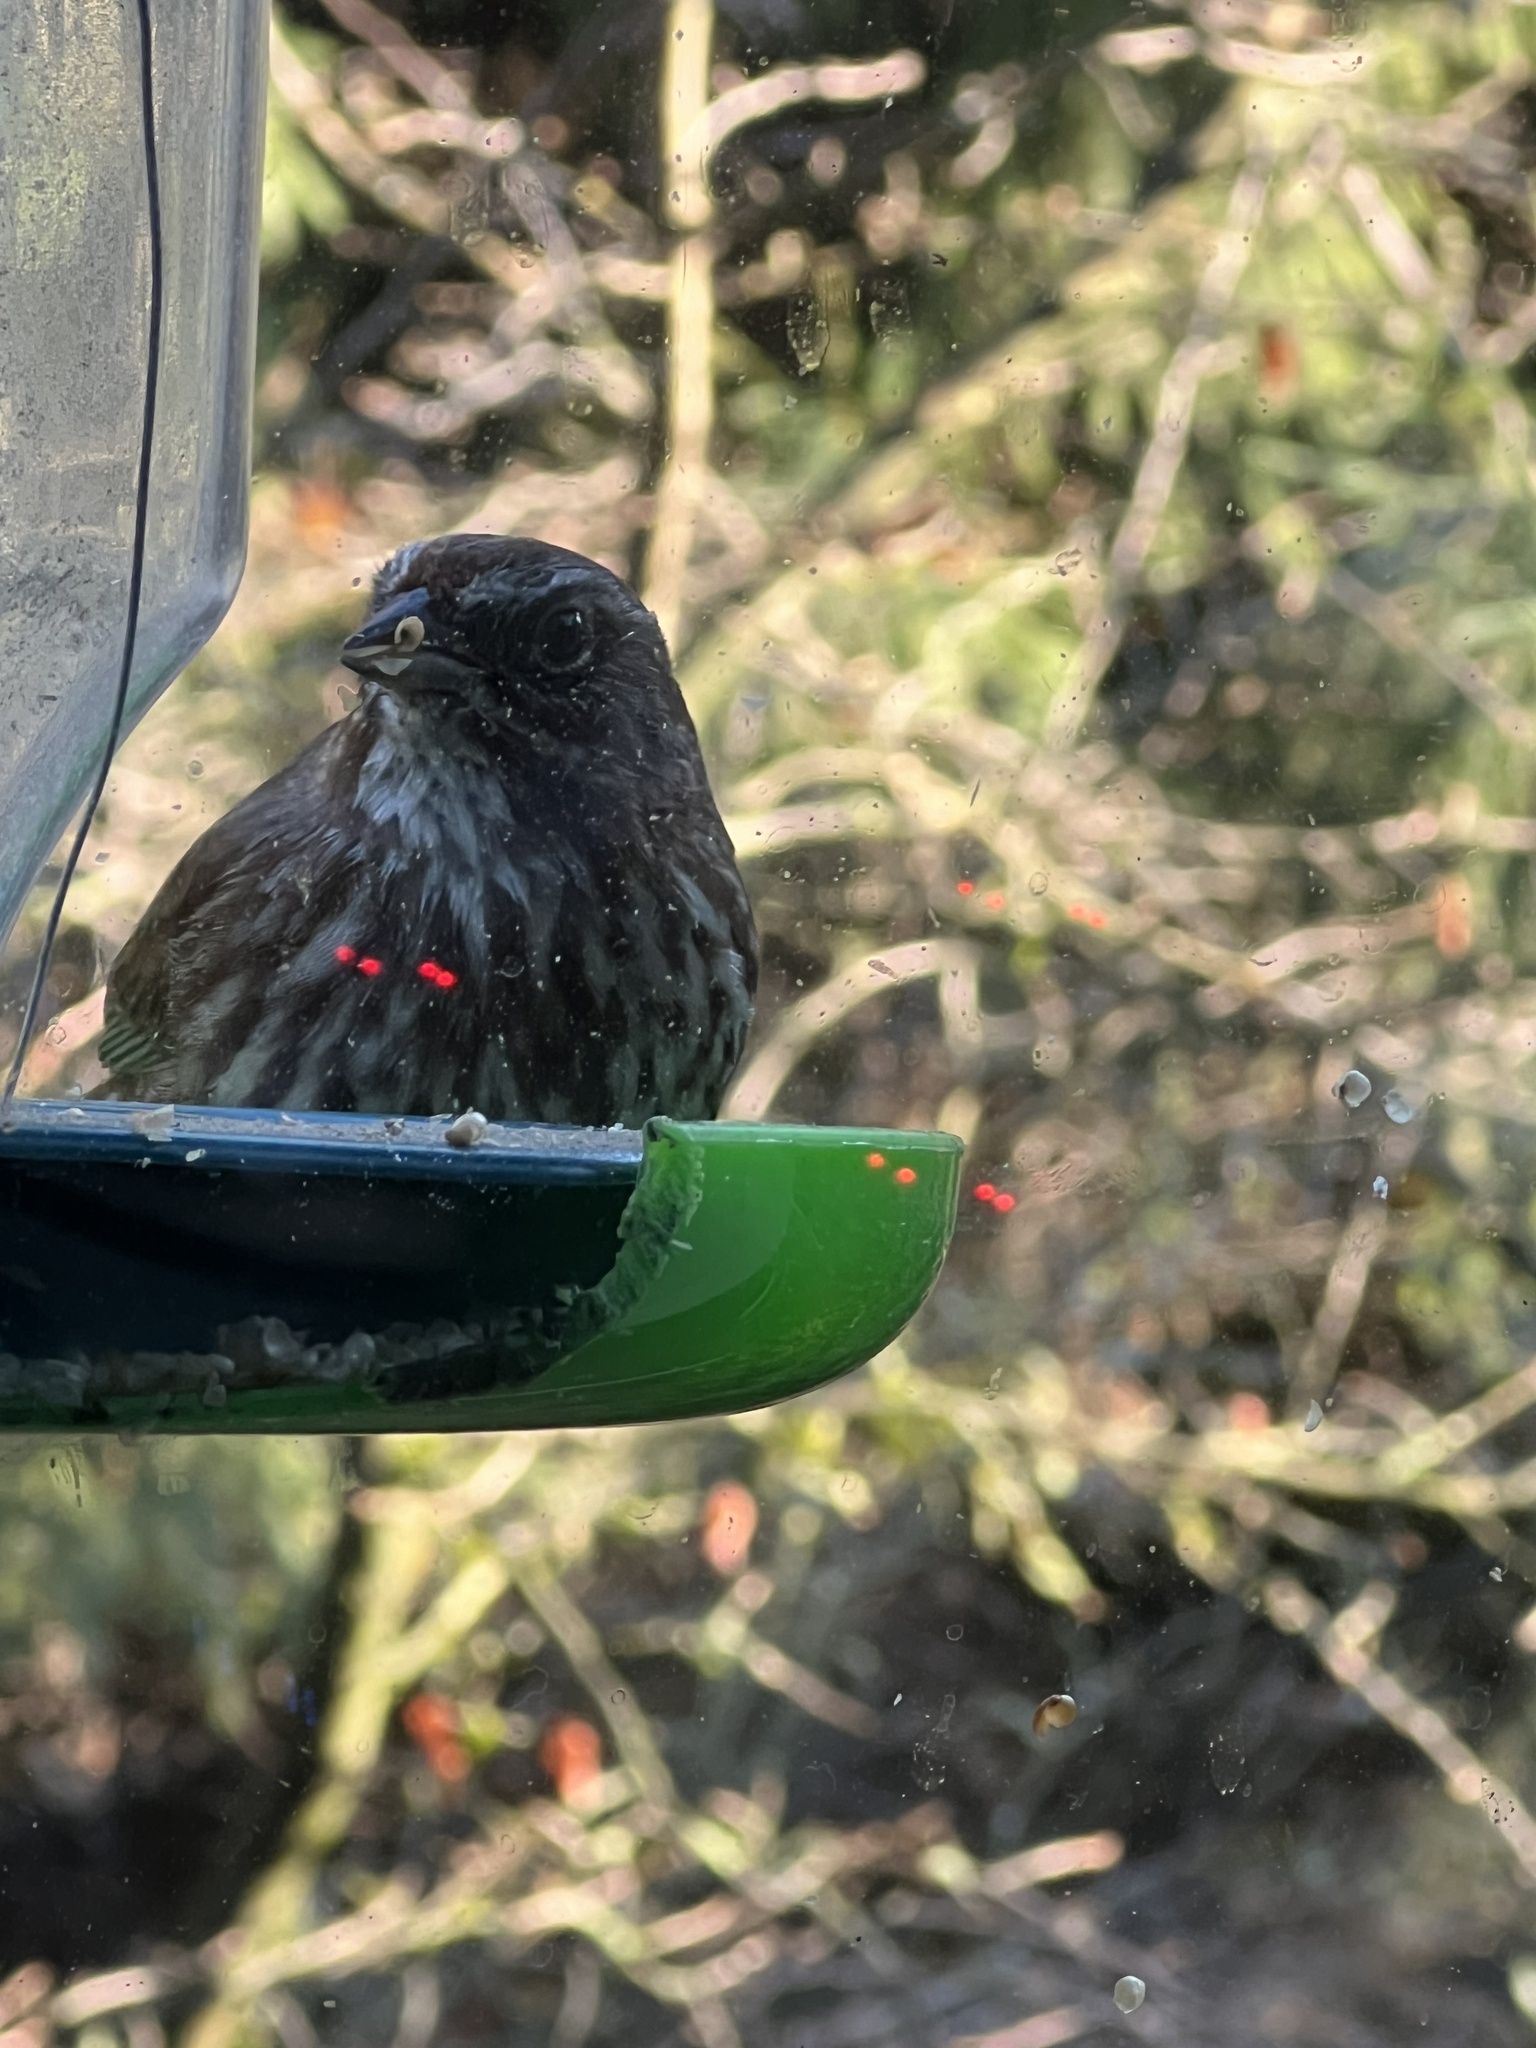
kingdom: Animalia
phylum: Chordata
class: Aves
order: Passeriformes
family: Passerellidae
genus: Melospiza
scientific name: Melospiza melodia
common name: Song sparrow
